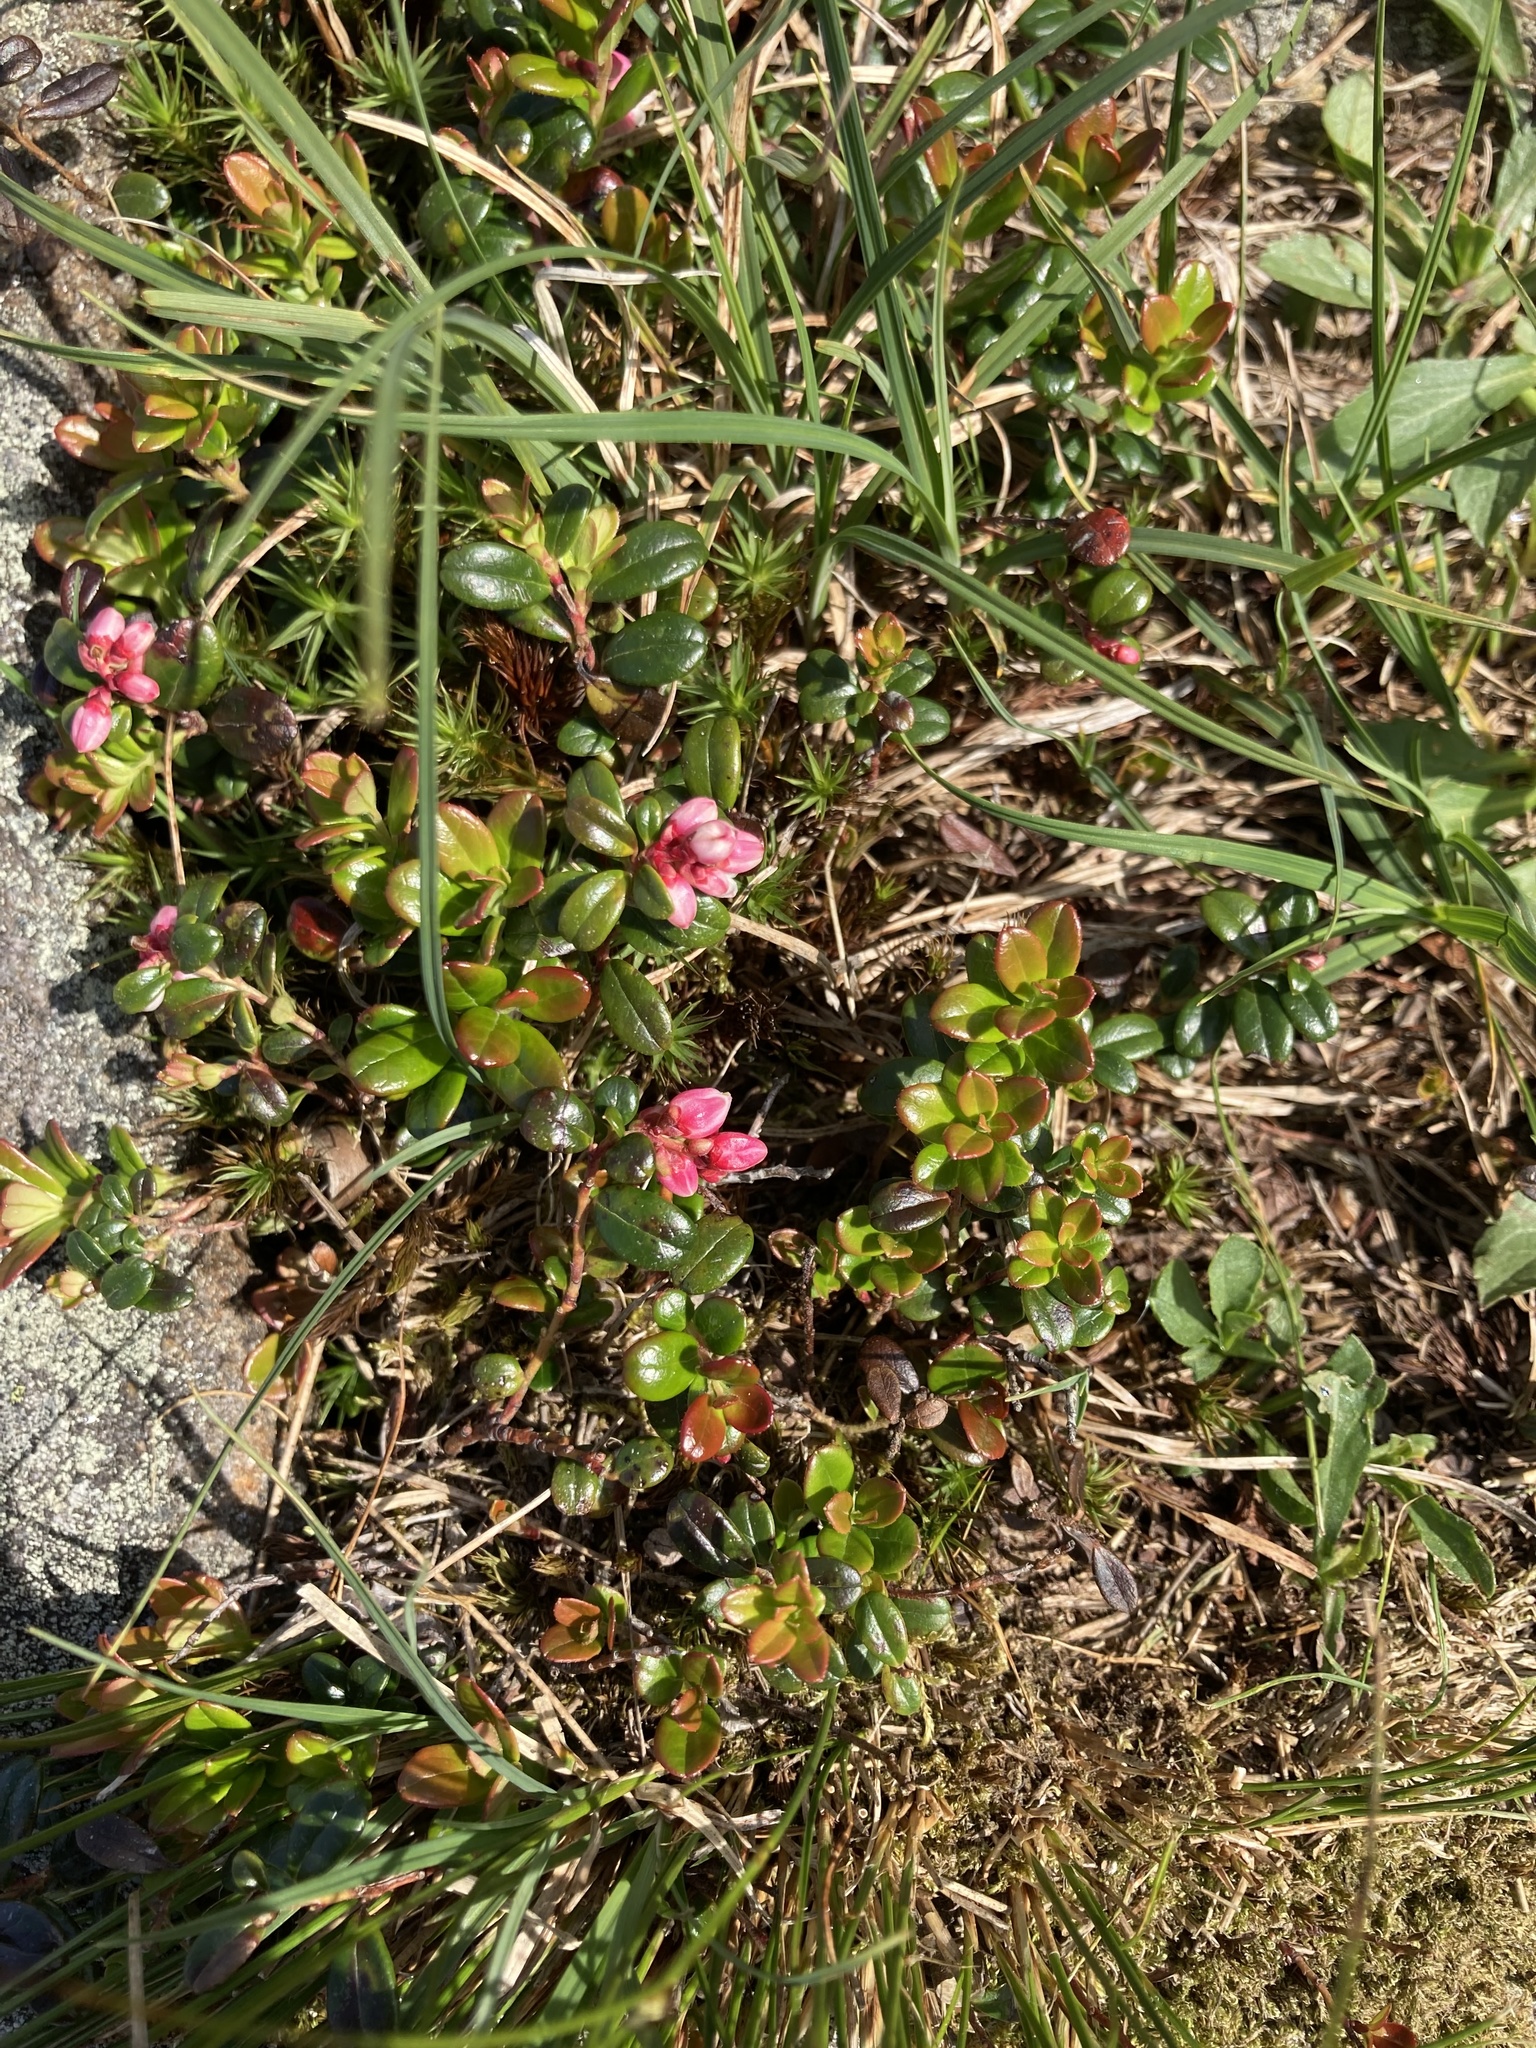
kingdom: Plantae
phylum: Tracheophyta
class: Magnoliopsida
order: Ericales
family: Ericaceae
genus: Vaccinium
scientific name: Vaccinium vitis-idaea
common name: Cowberry
